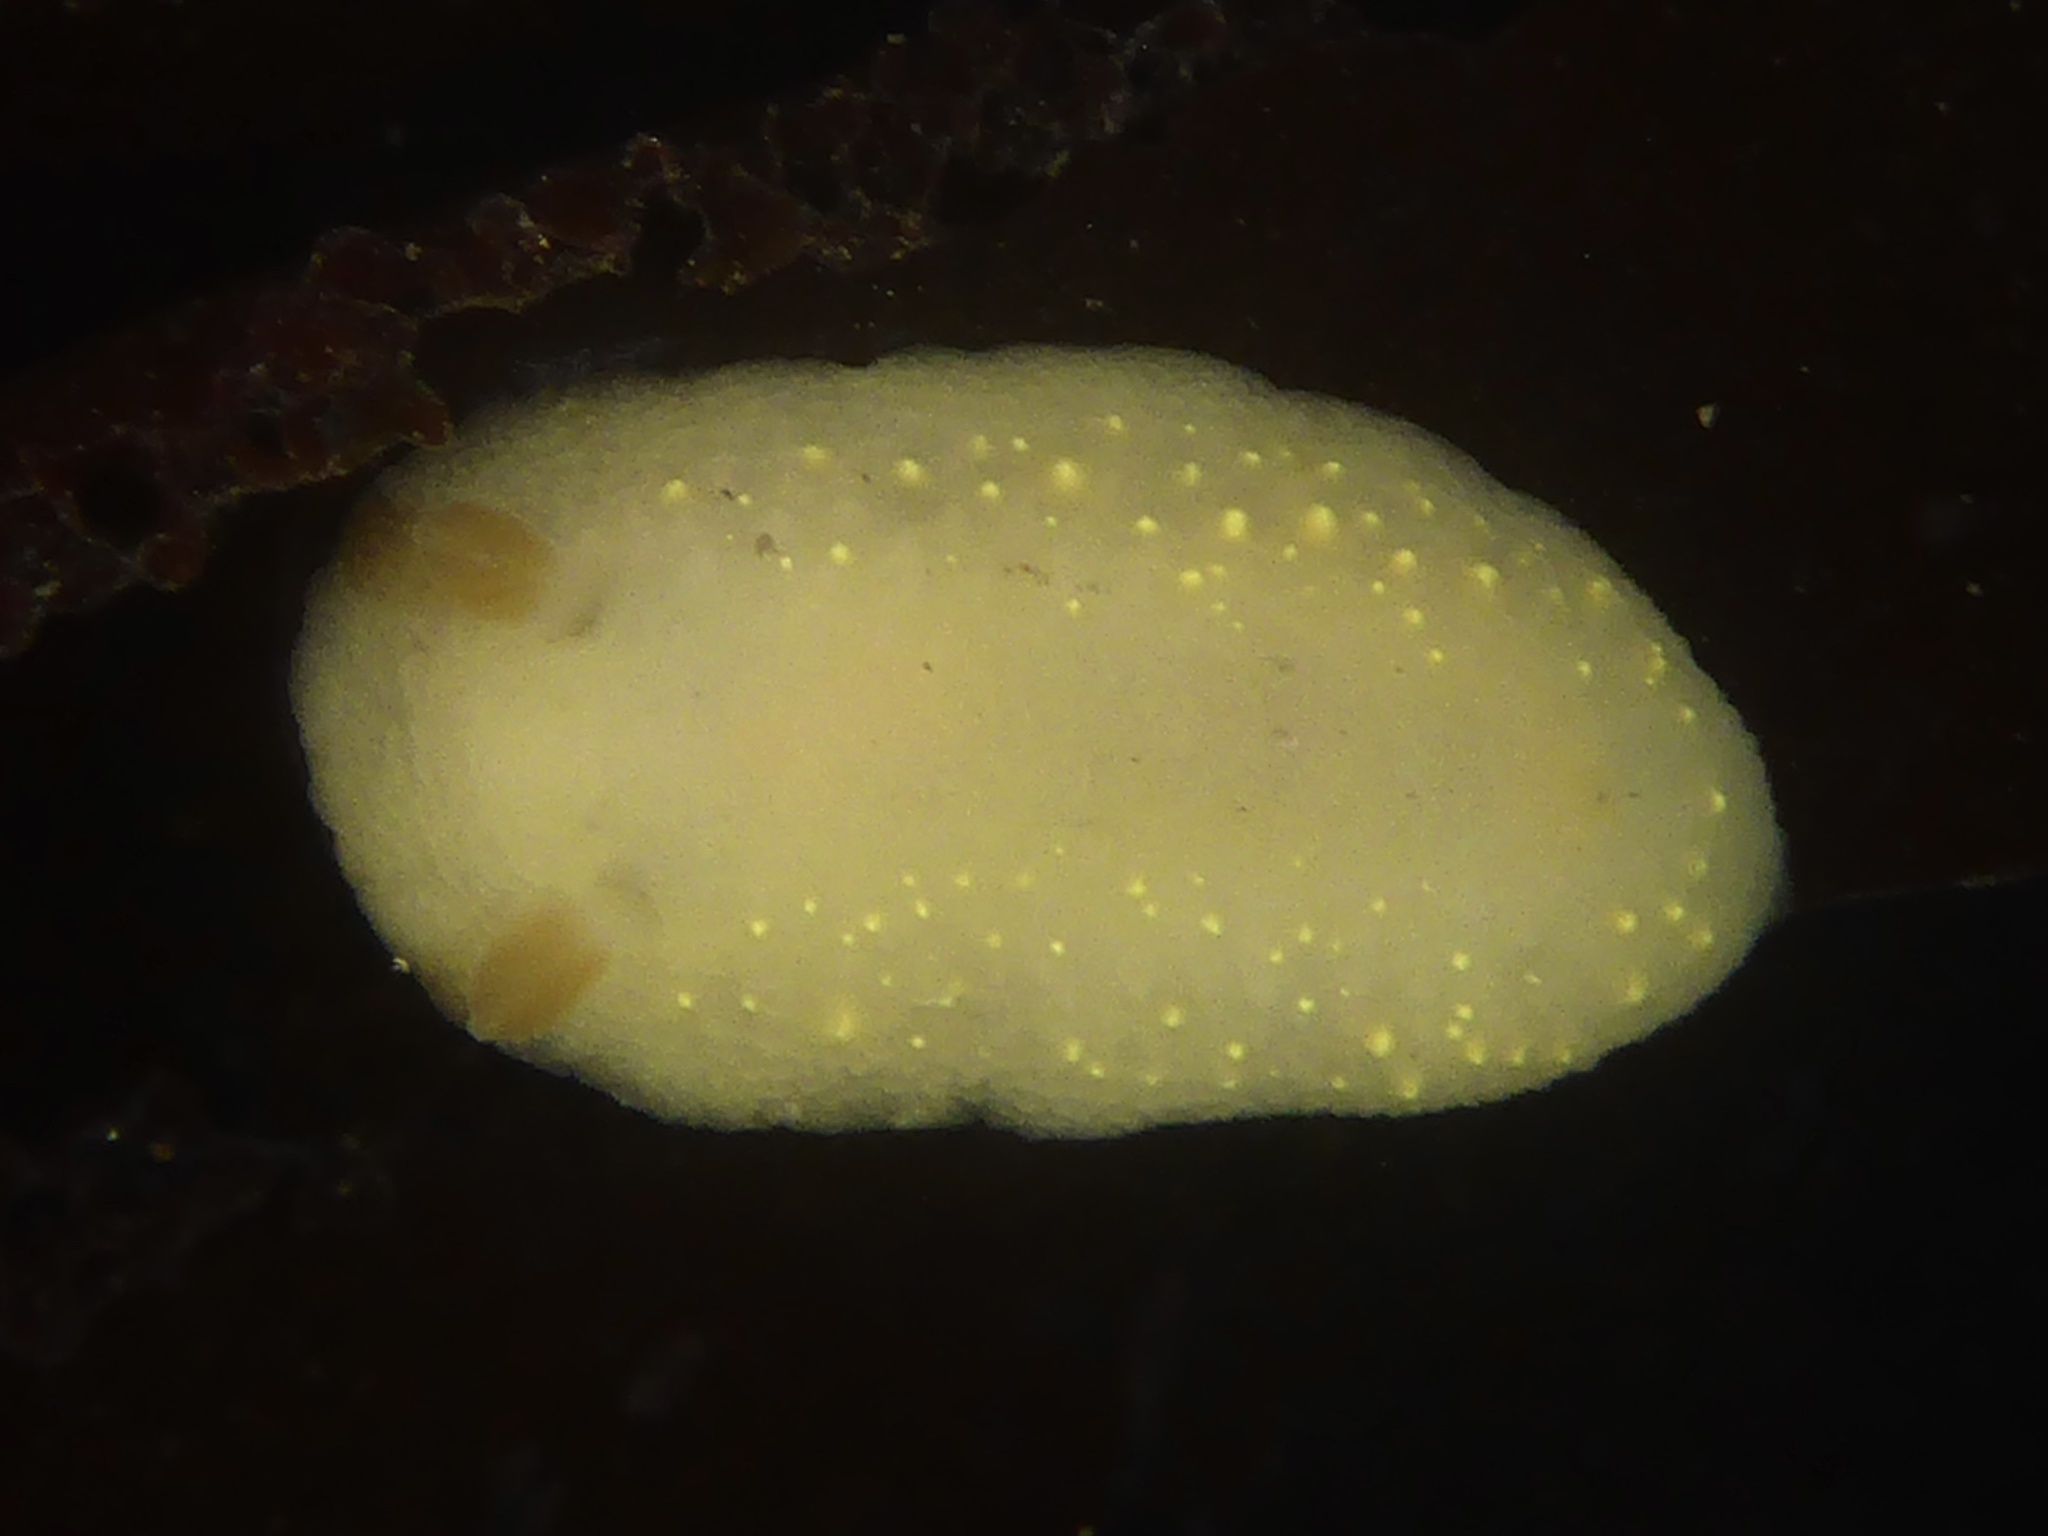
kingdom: Animalia
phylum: Mollusca
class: Gastropoda
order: Nudibranchia
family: Cadlinidae
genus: Cadlina
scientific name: Cadlina modesta
